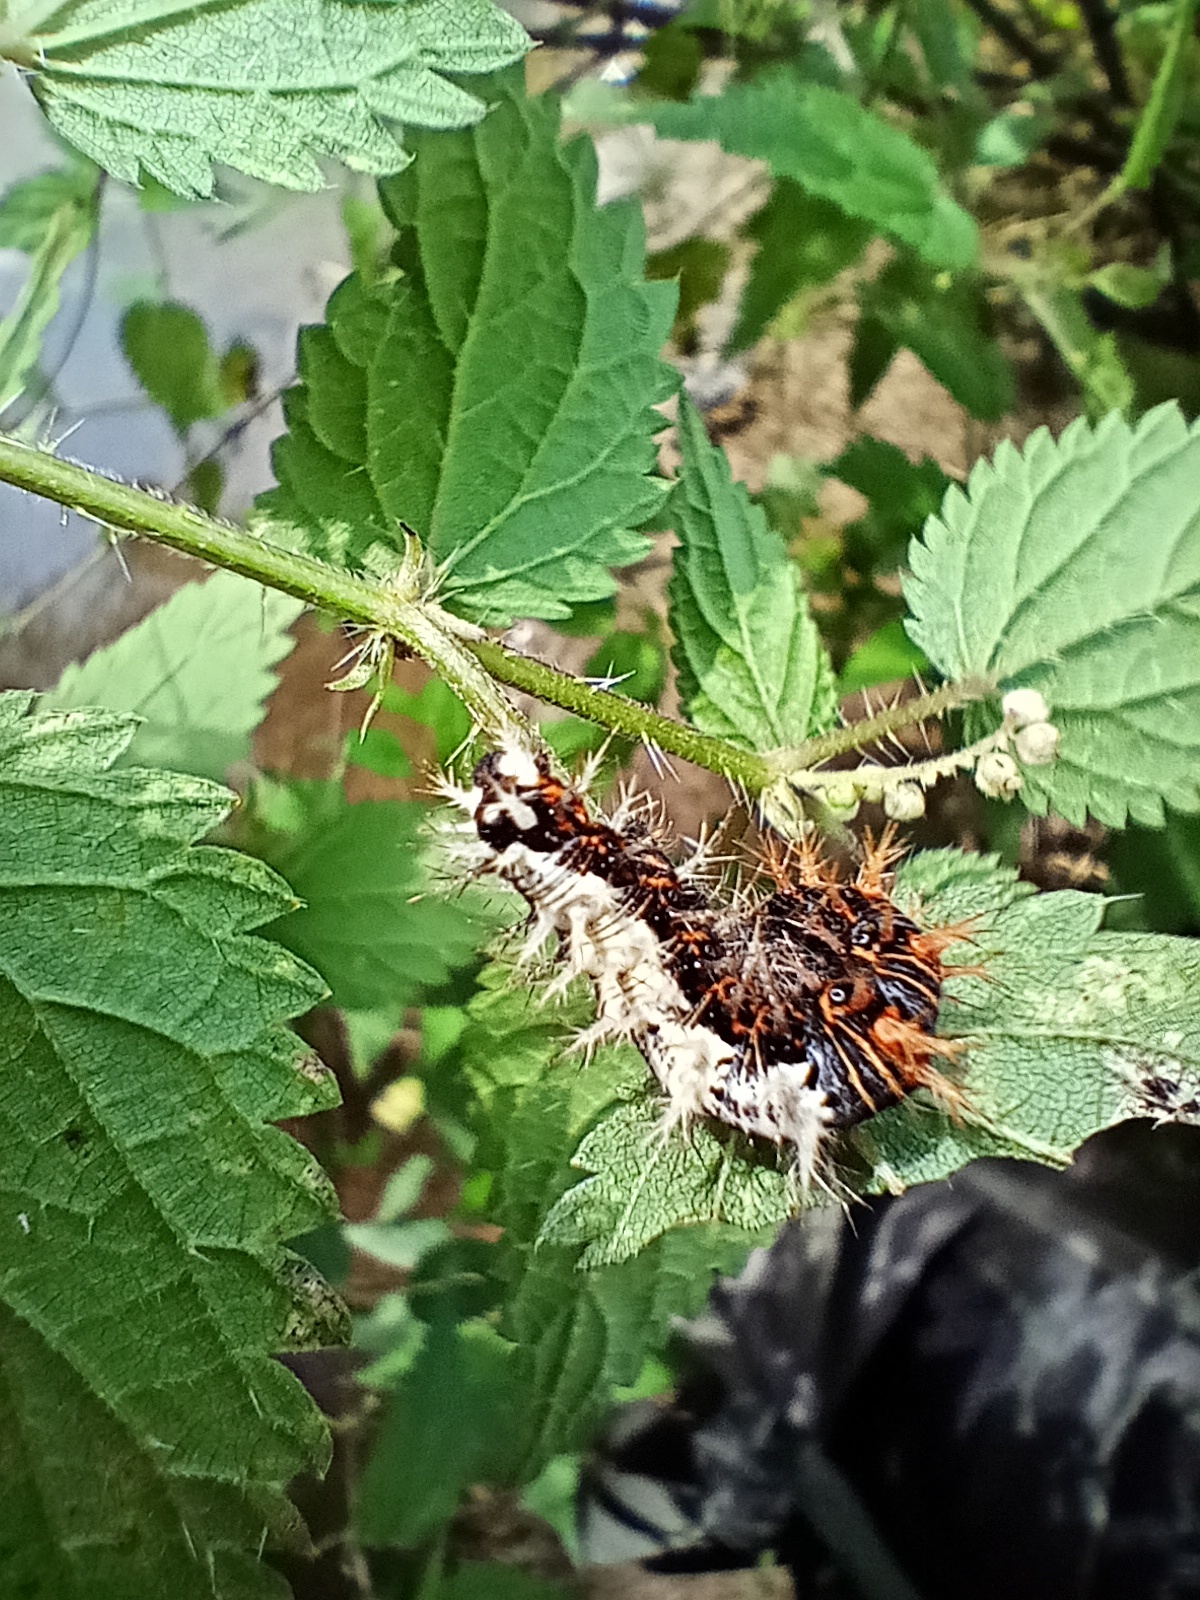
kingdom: Animalia
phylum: Arthropoda
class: Insecta
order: Lepidoptera
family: Nymphalidae
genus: Polygonia
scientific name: Polygonia c-album
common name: Comma
